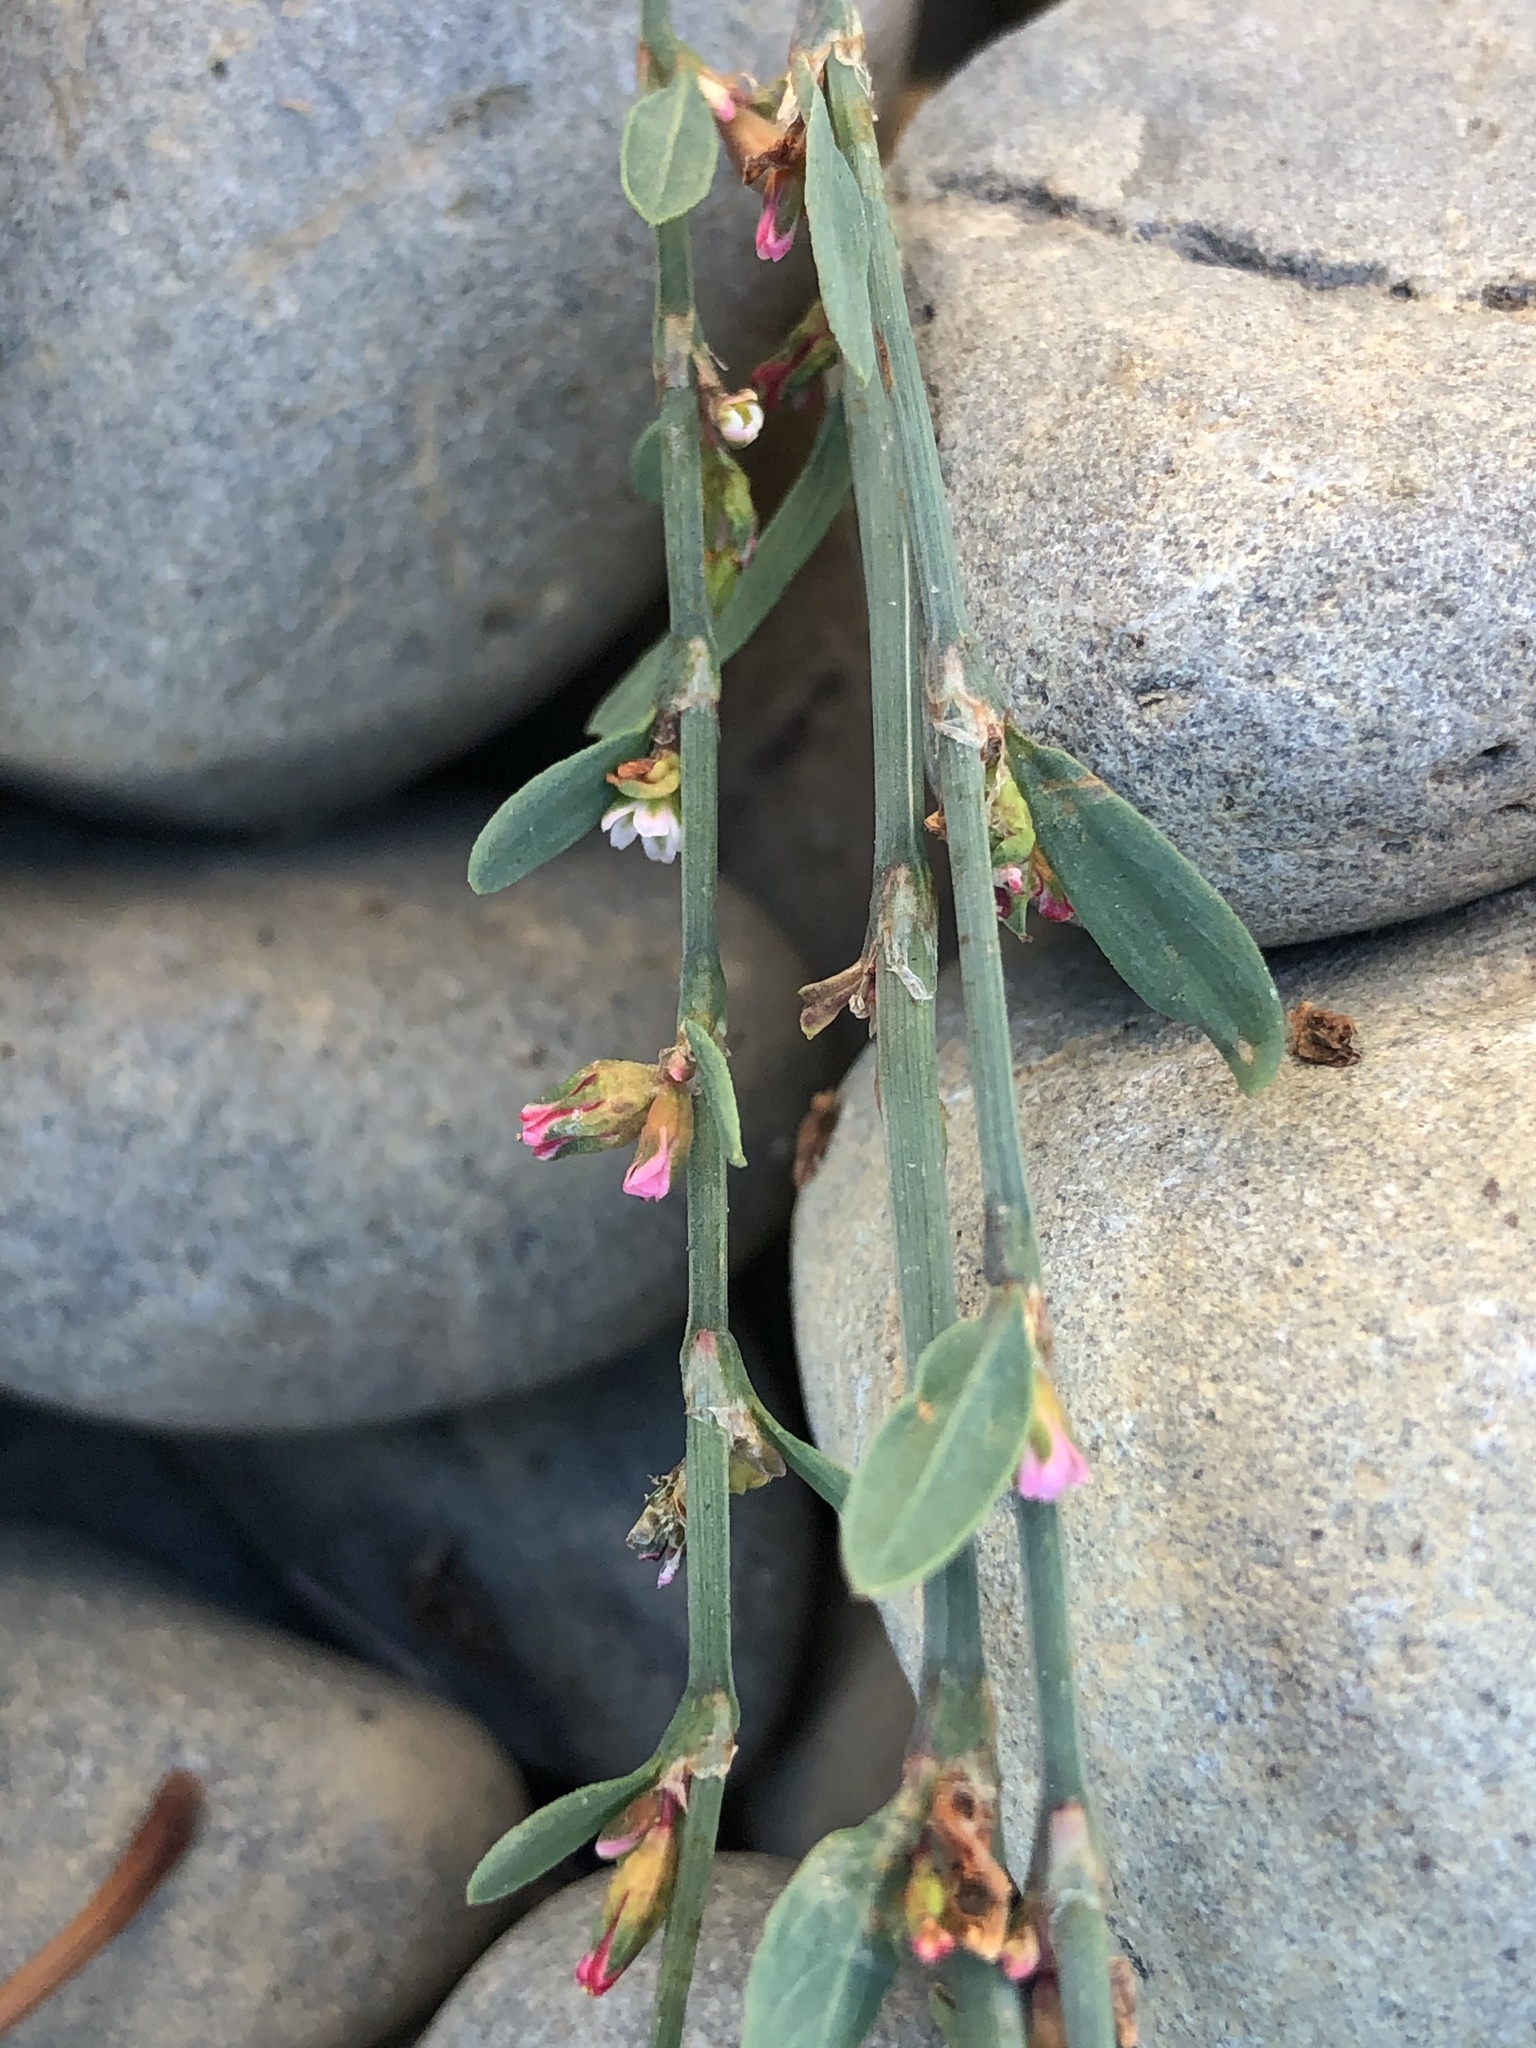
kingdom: Plantae
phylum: Tracheophyta
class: Magnoliopsida
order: Caryophyllales
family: Polygonaceae
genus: Polygonum
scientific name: Polygonum aviculare
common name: Prostrate knotweed
